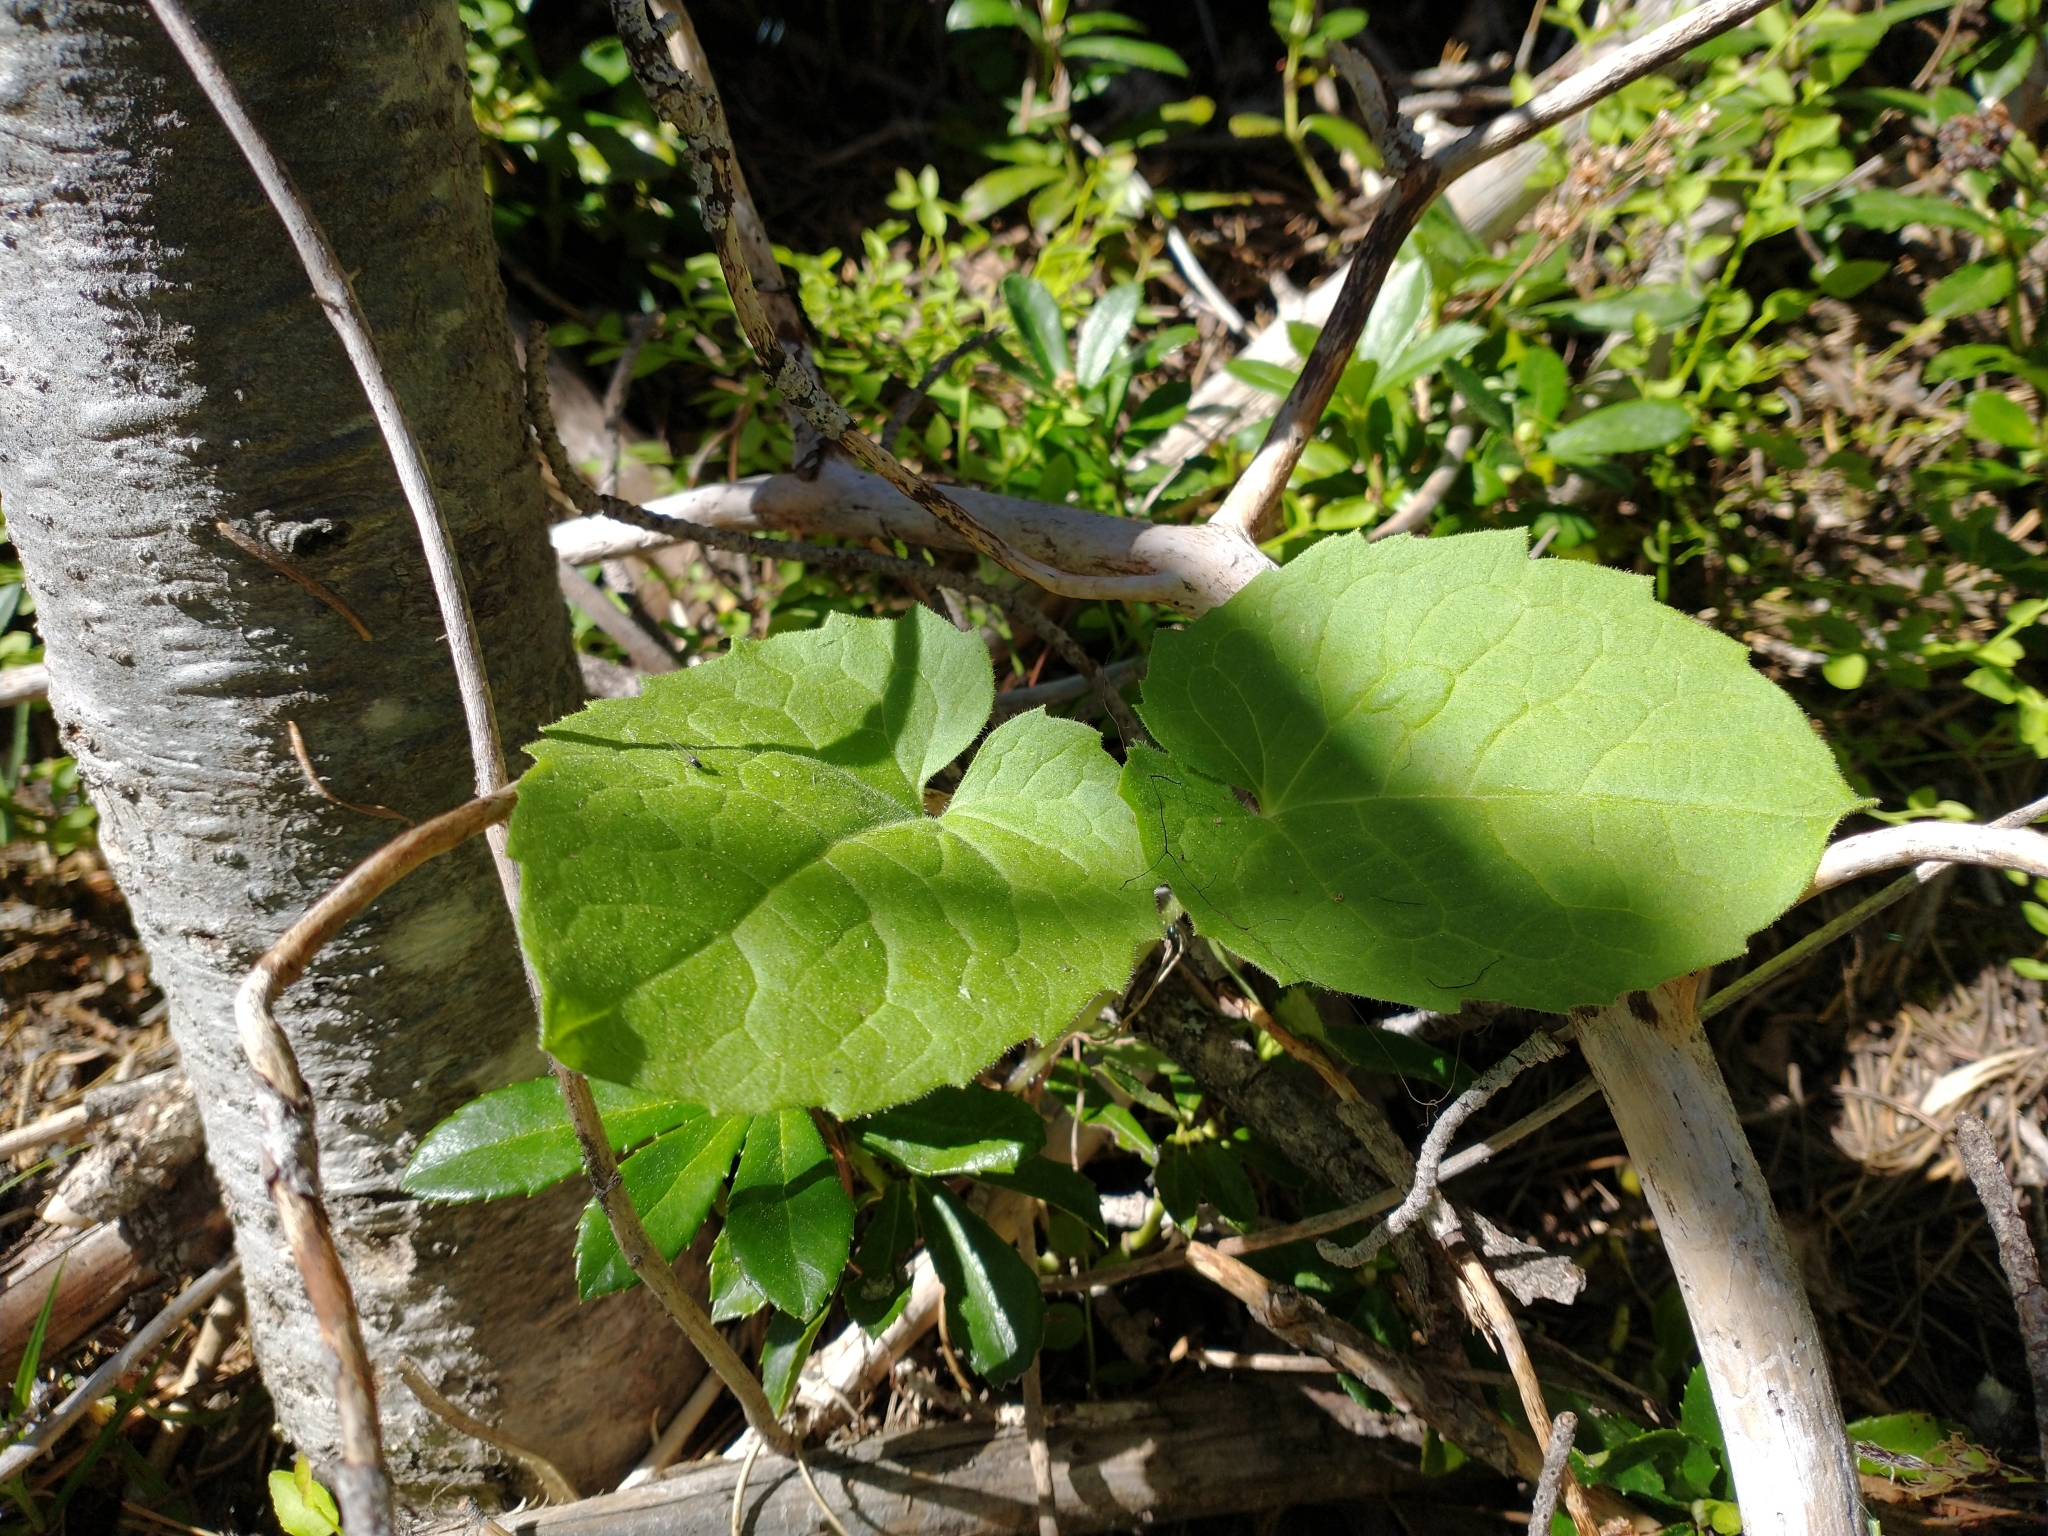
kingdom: Plantae
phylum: Tracheophyta
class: Magnoliopsida
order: Asterales
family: Asteraceae
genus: Arnica
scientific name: Arnica cordifolia
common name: Heart-leaf arnica
